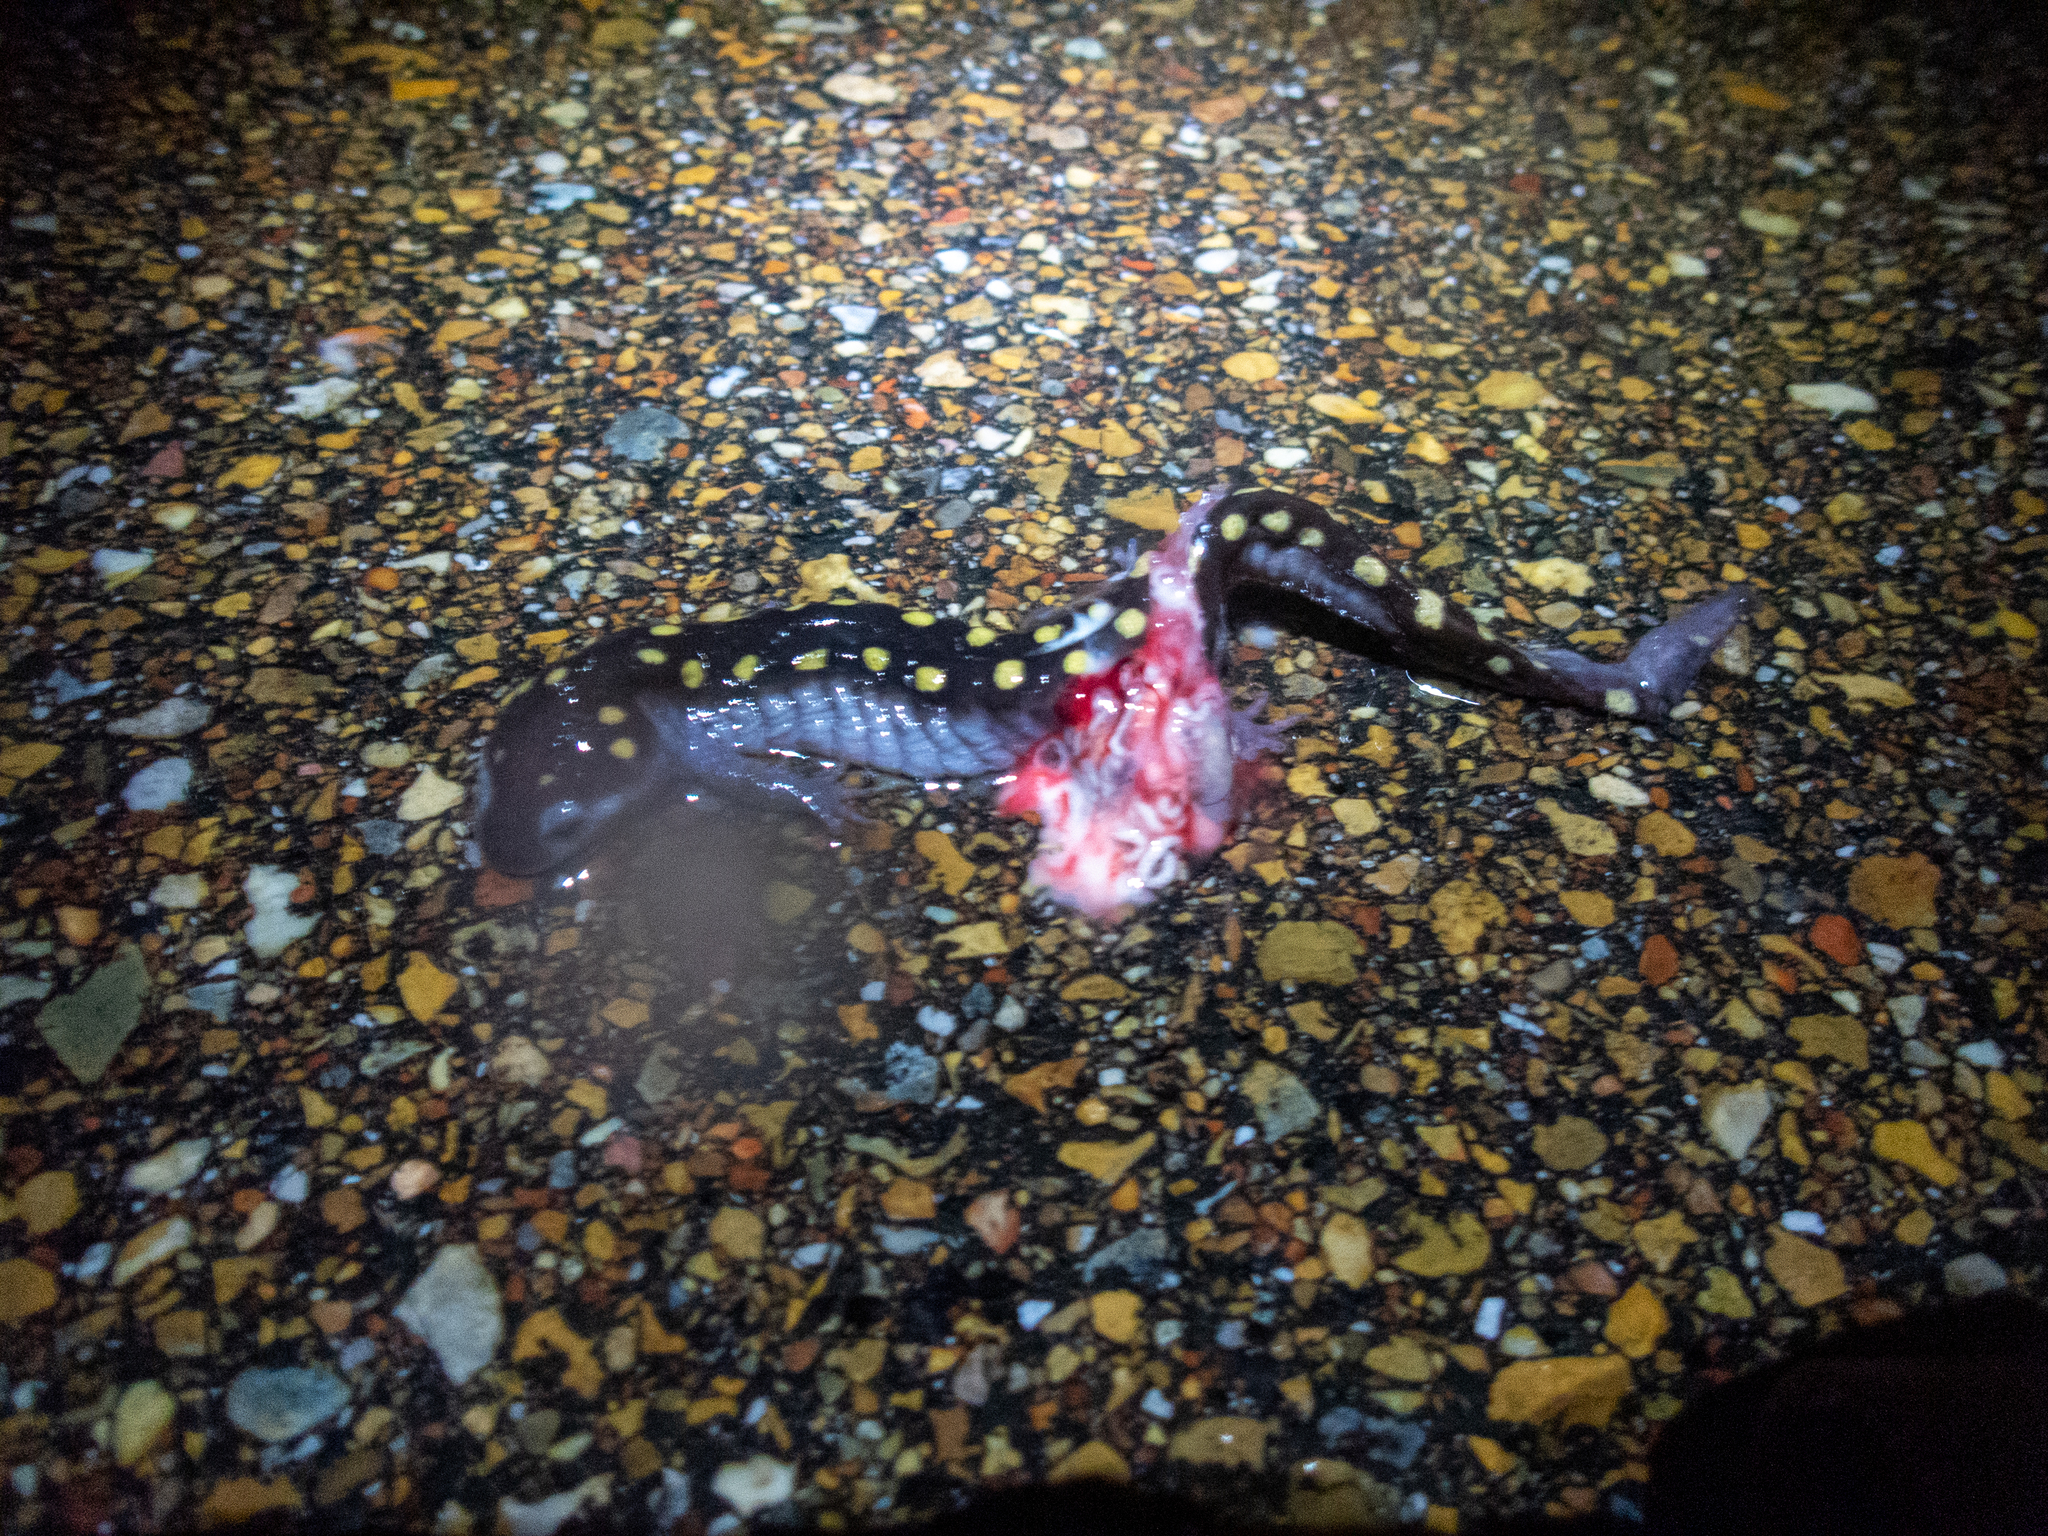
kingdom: Animalia
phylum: Chordata
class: Amphibia
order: Caudata
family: Ambystomatidae
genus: Ambystoma
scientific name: Ambystoma maculatum
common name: Spotted salamander
